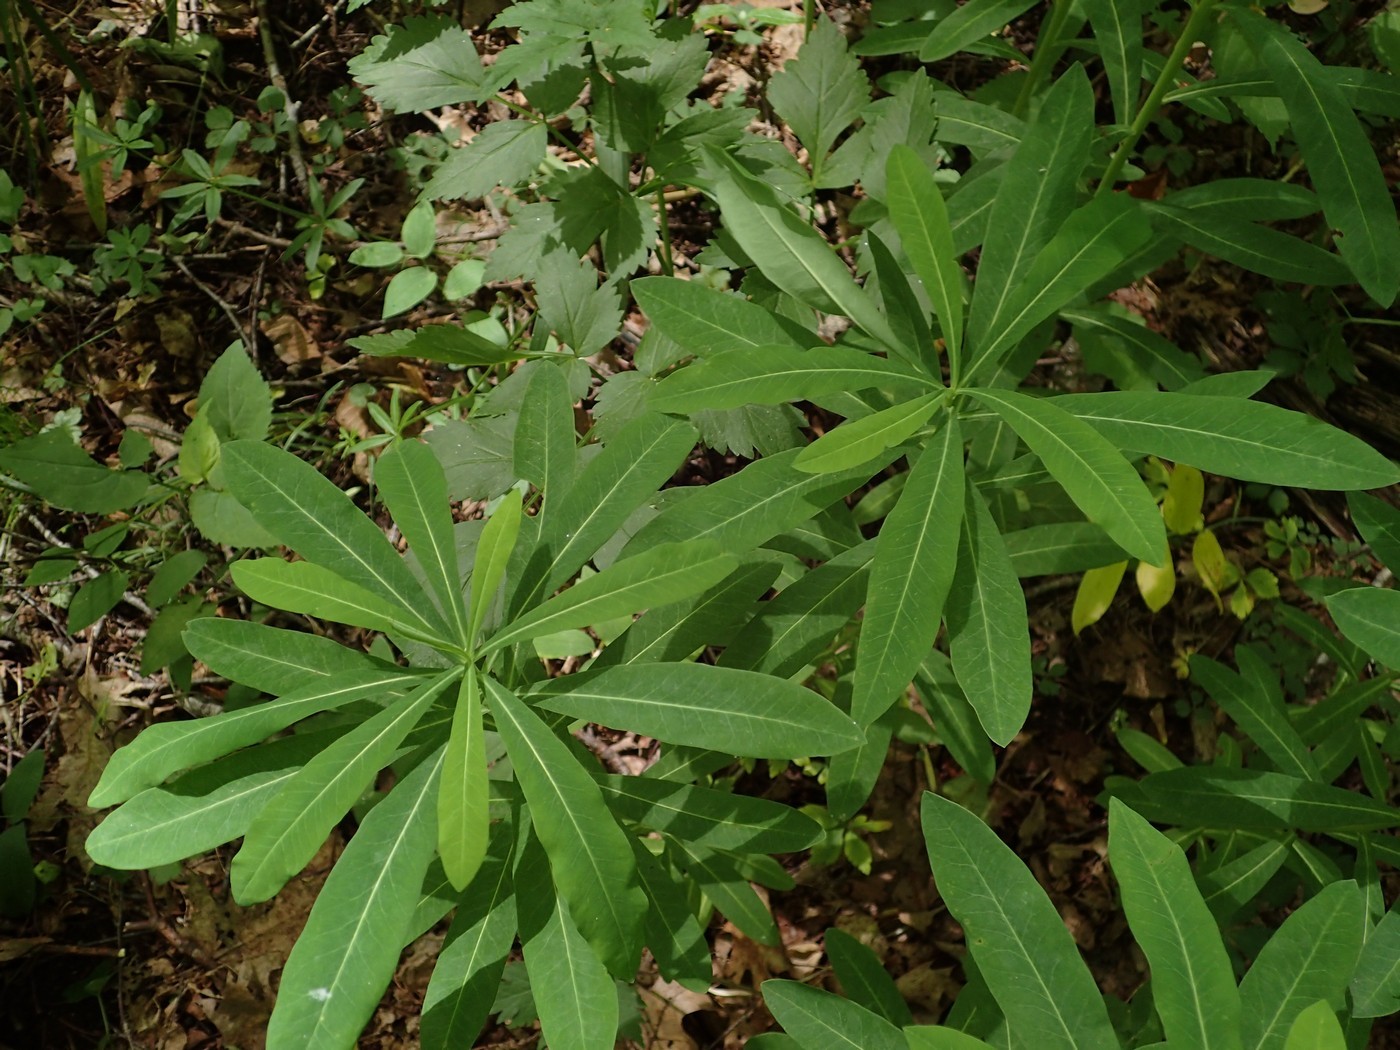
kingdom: Plantae
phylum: Tracheophyta
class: Magnoliopsida
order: Malpighiales
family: Euphorbiaceae
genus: Euphorbia
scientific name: Euphorbia purpurea
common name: Darlington's spurge
